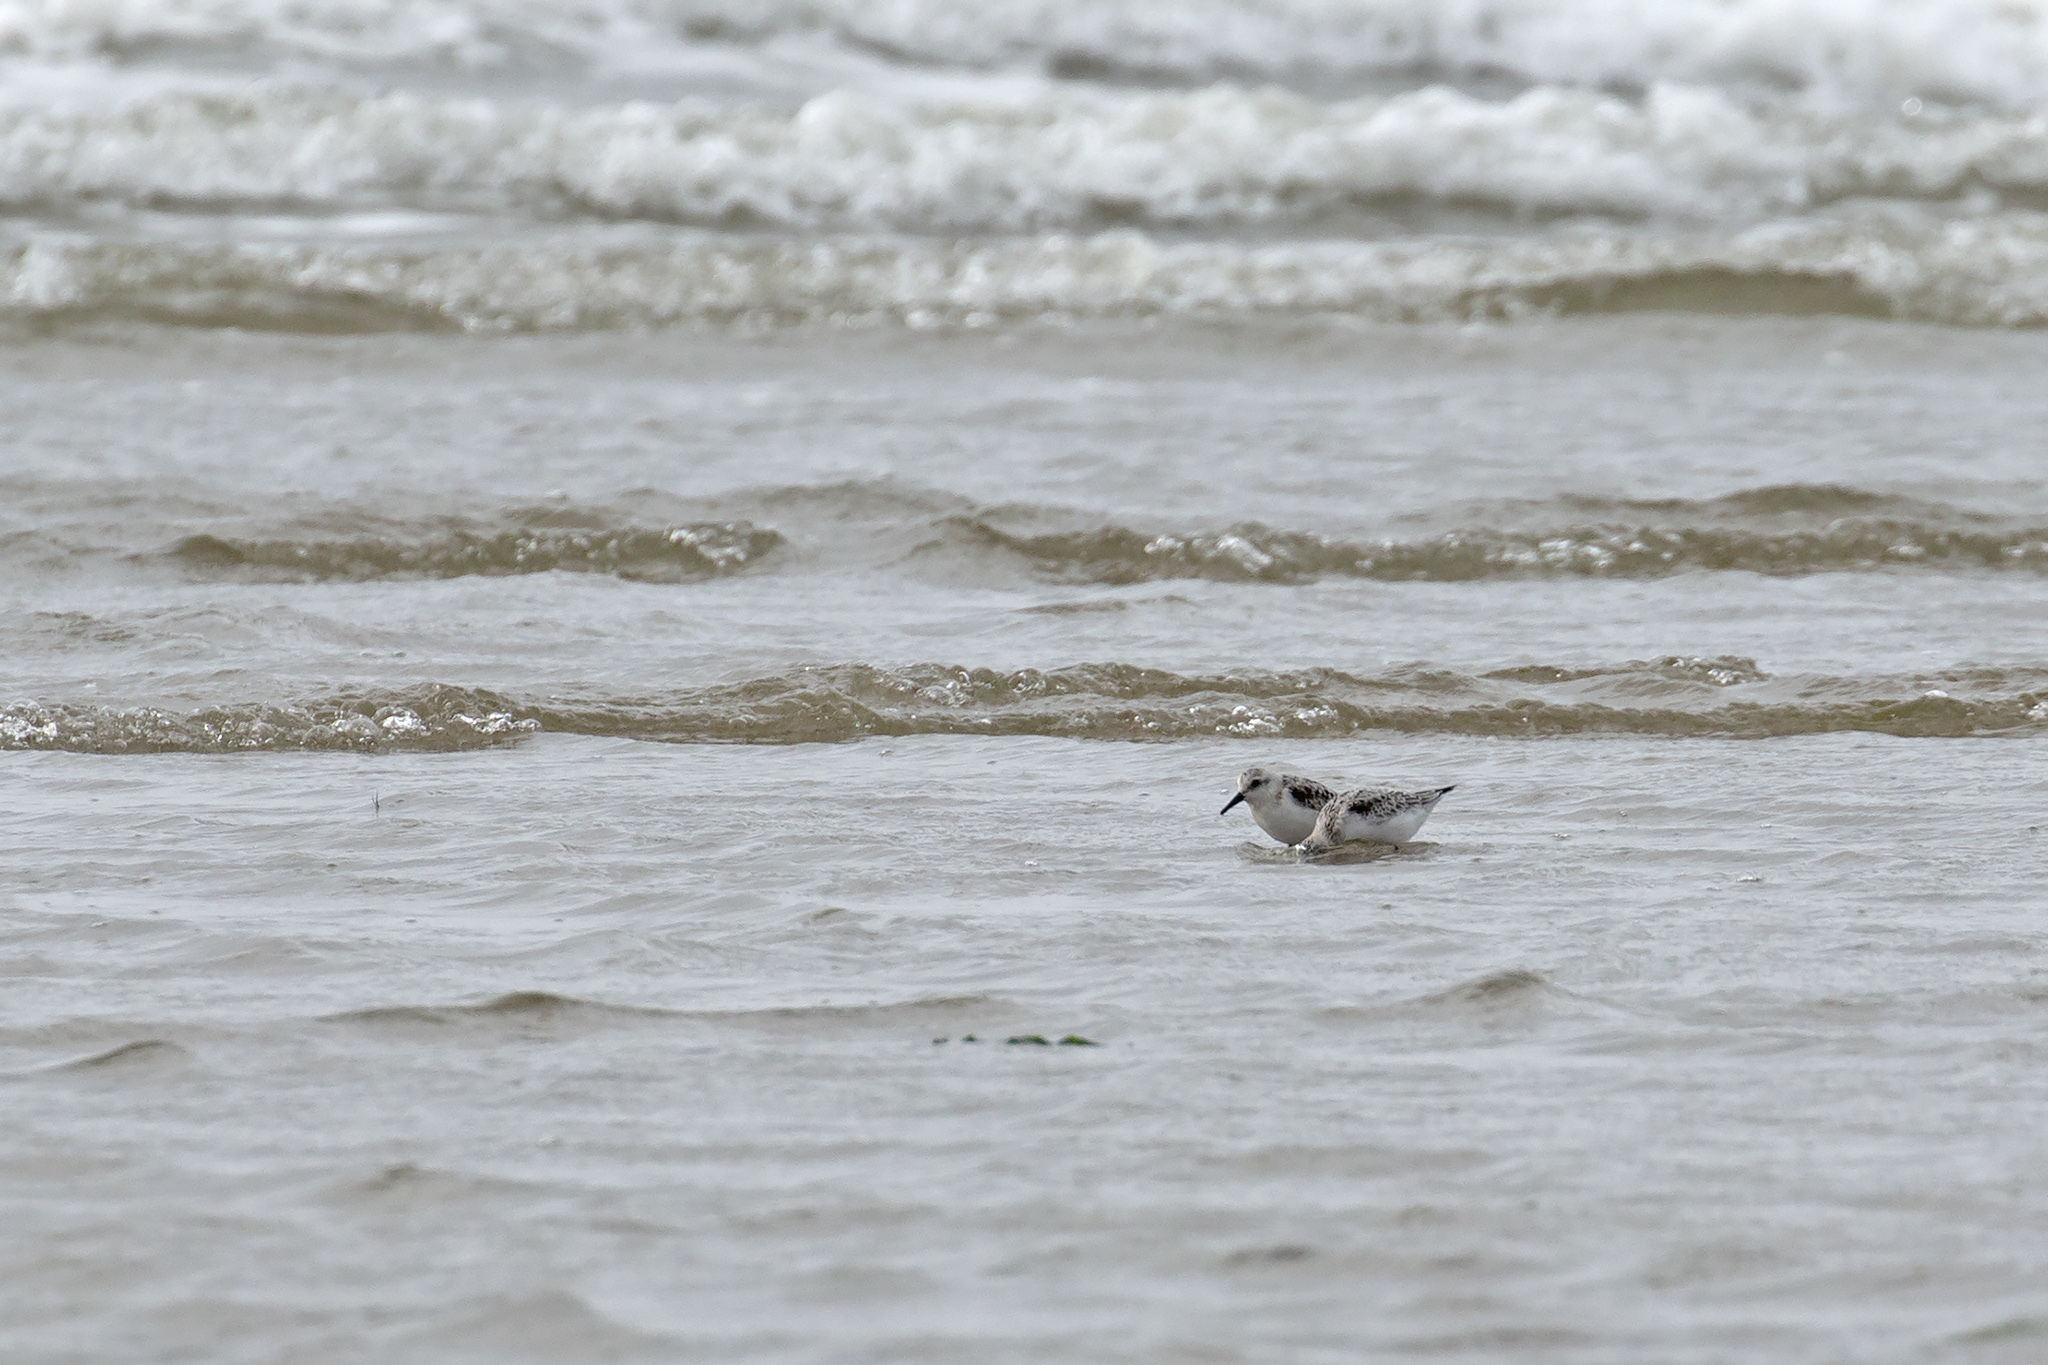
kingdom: Animalia
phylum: Chordata
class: Aves
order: Charadriiformes
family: Scolopacidae
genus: Calidris
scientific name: Calidris alba
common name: Sanderling
